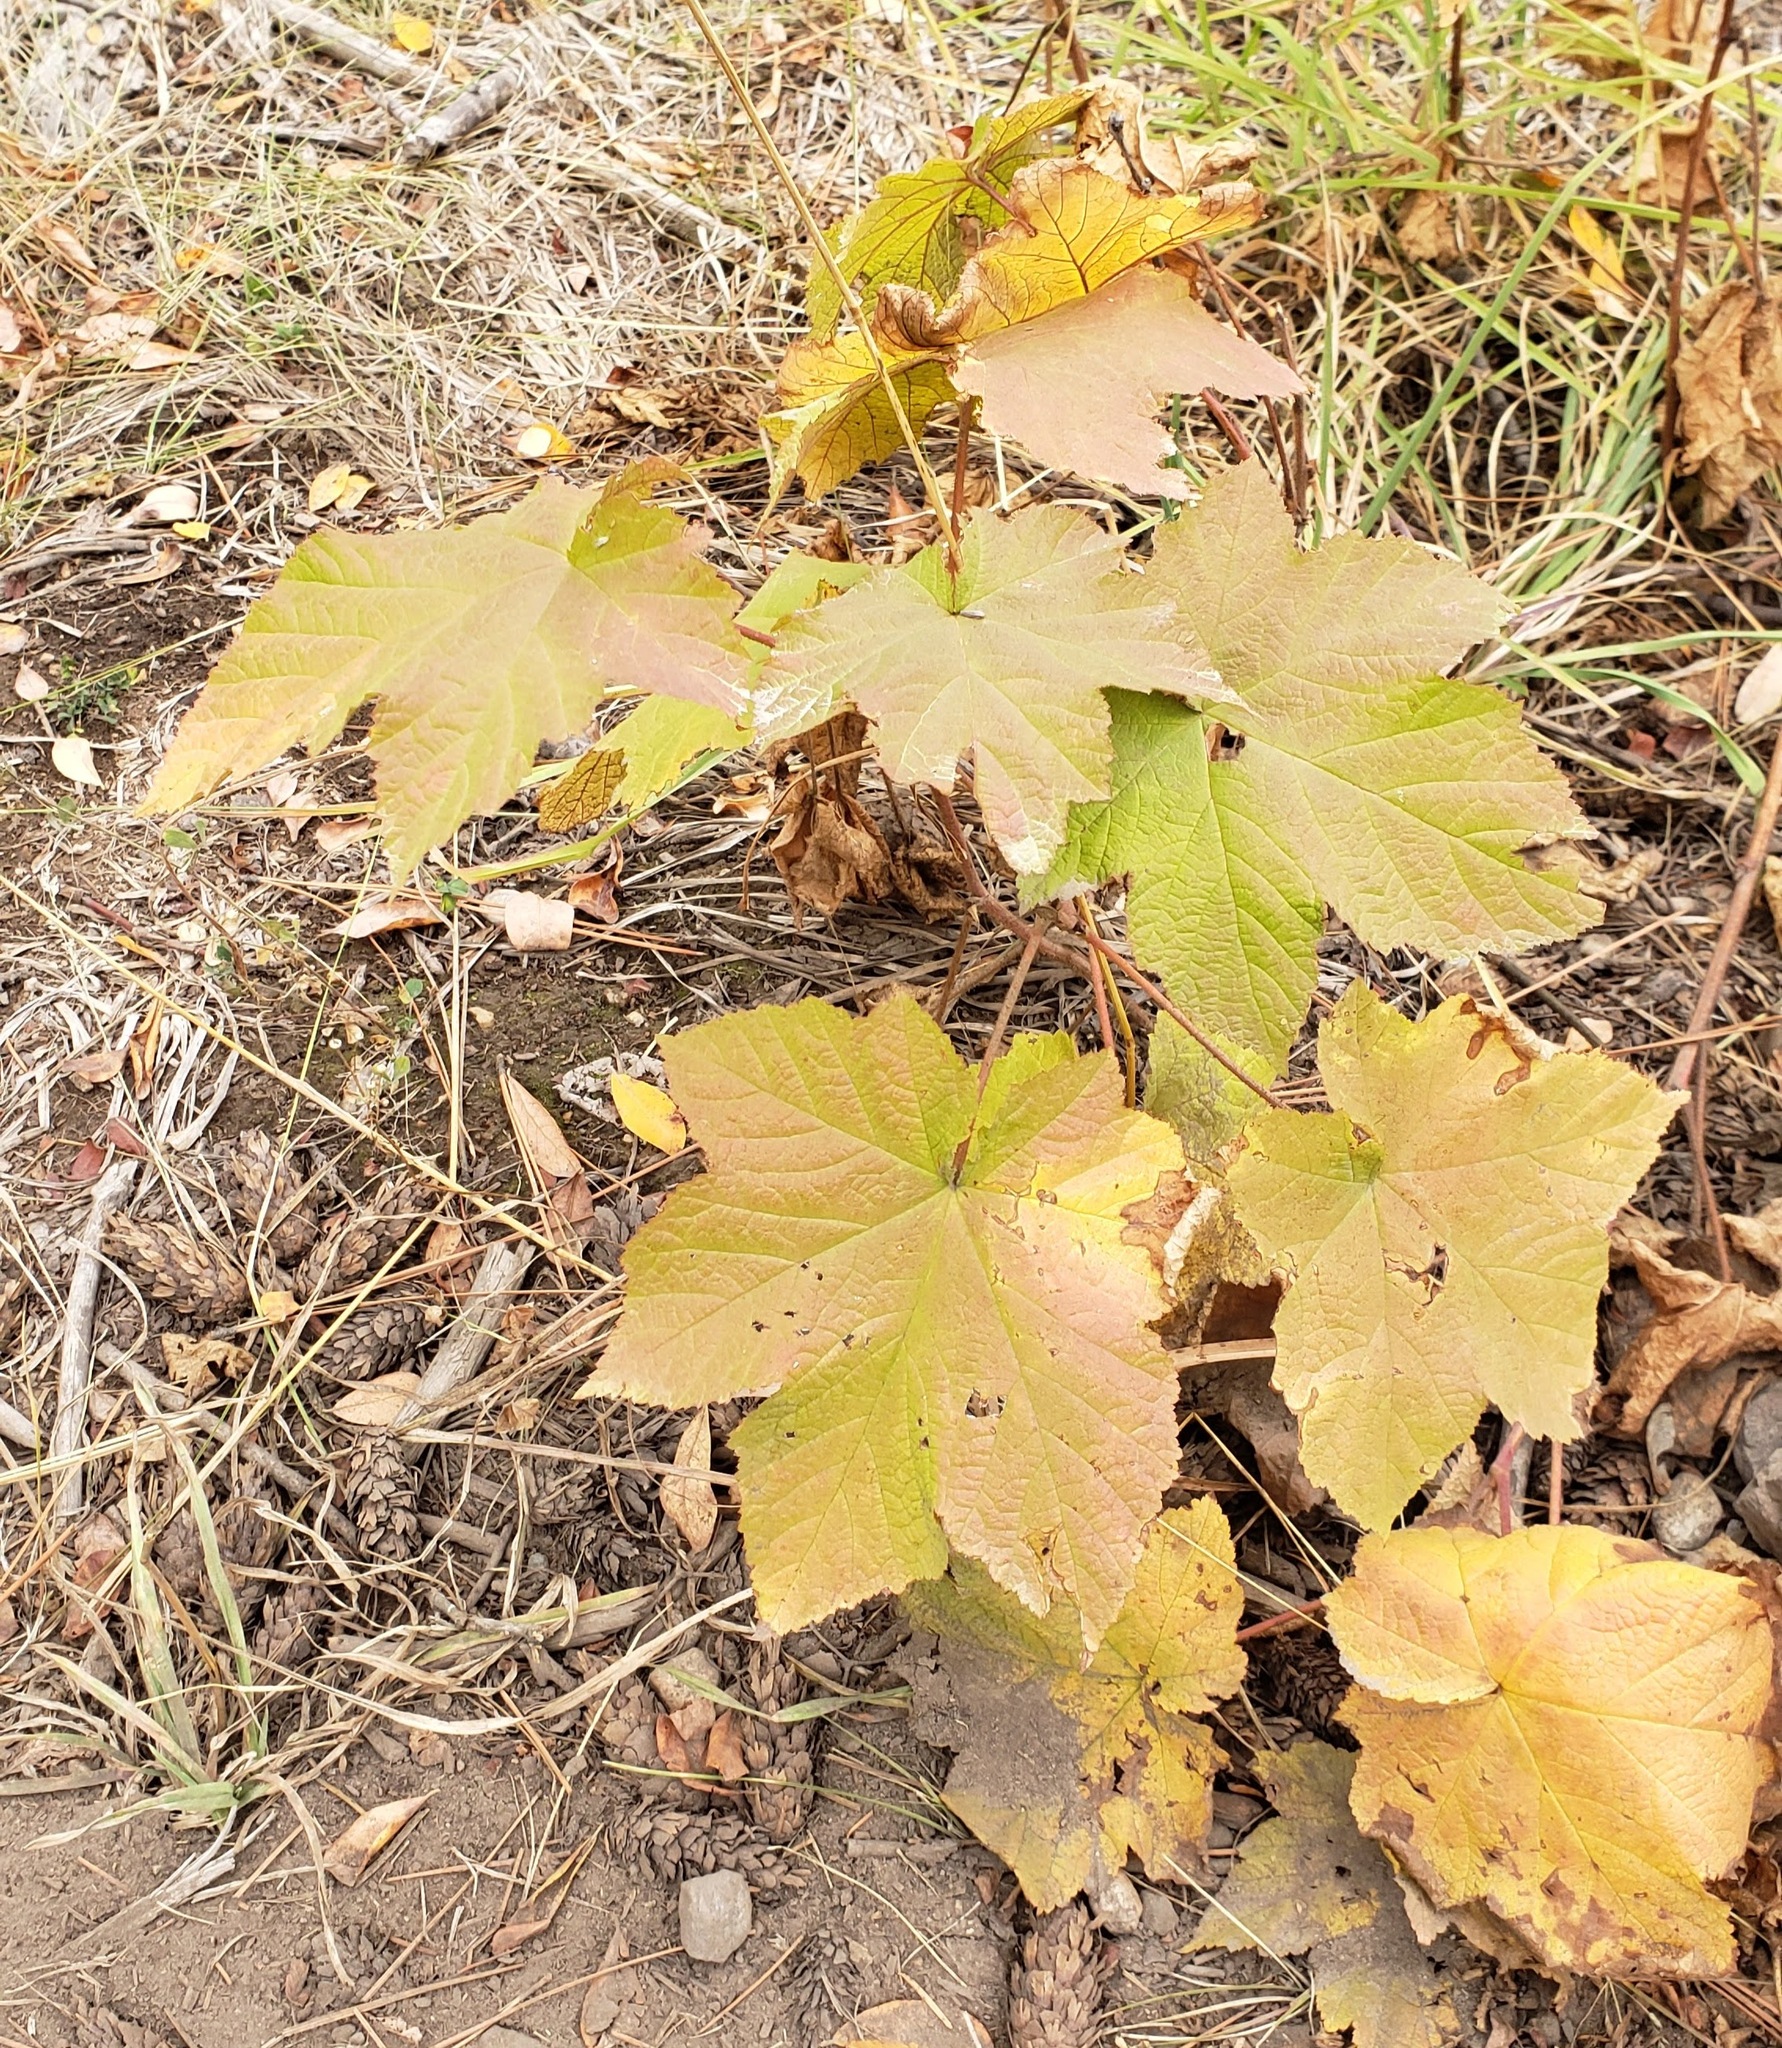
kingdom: Plantae
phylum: Tracheophyta
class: Magnoliopsida
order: Rosales
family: Rosaceae
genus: Rubus
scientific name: Rubus parviflorus
